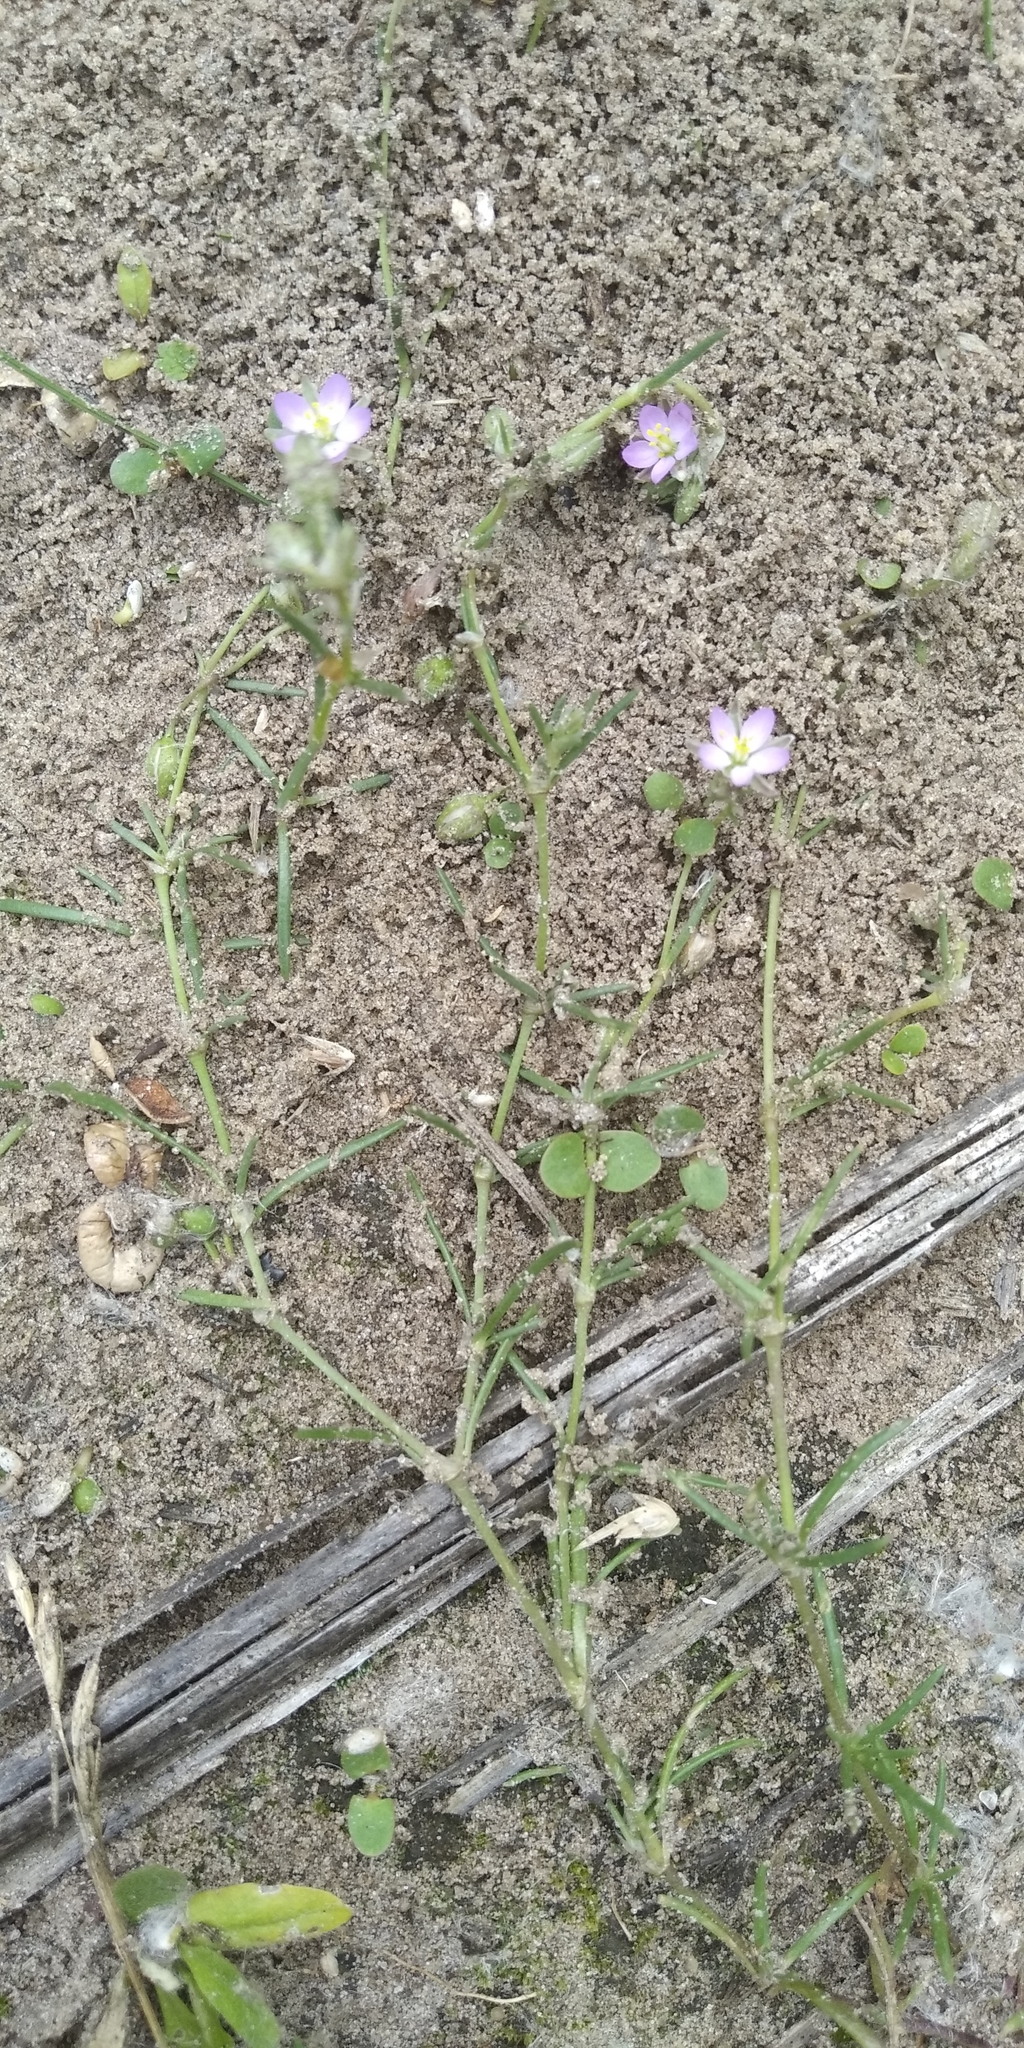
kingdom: Plantae
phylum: Tracheophyta
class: Magnoliopsida
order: Caryophyllales
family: Caryophyllaceae
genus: Spergularia
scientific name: Spergularia rubra
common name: Red sand-spurrey
